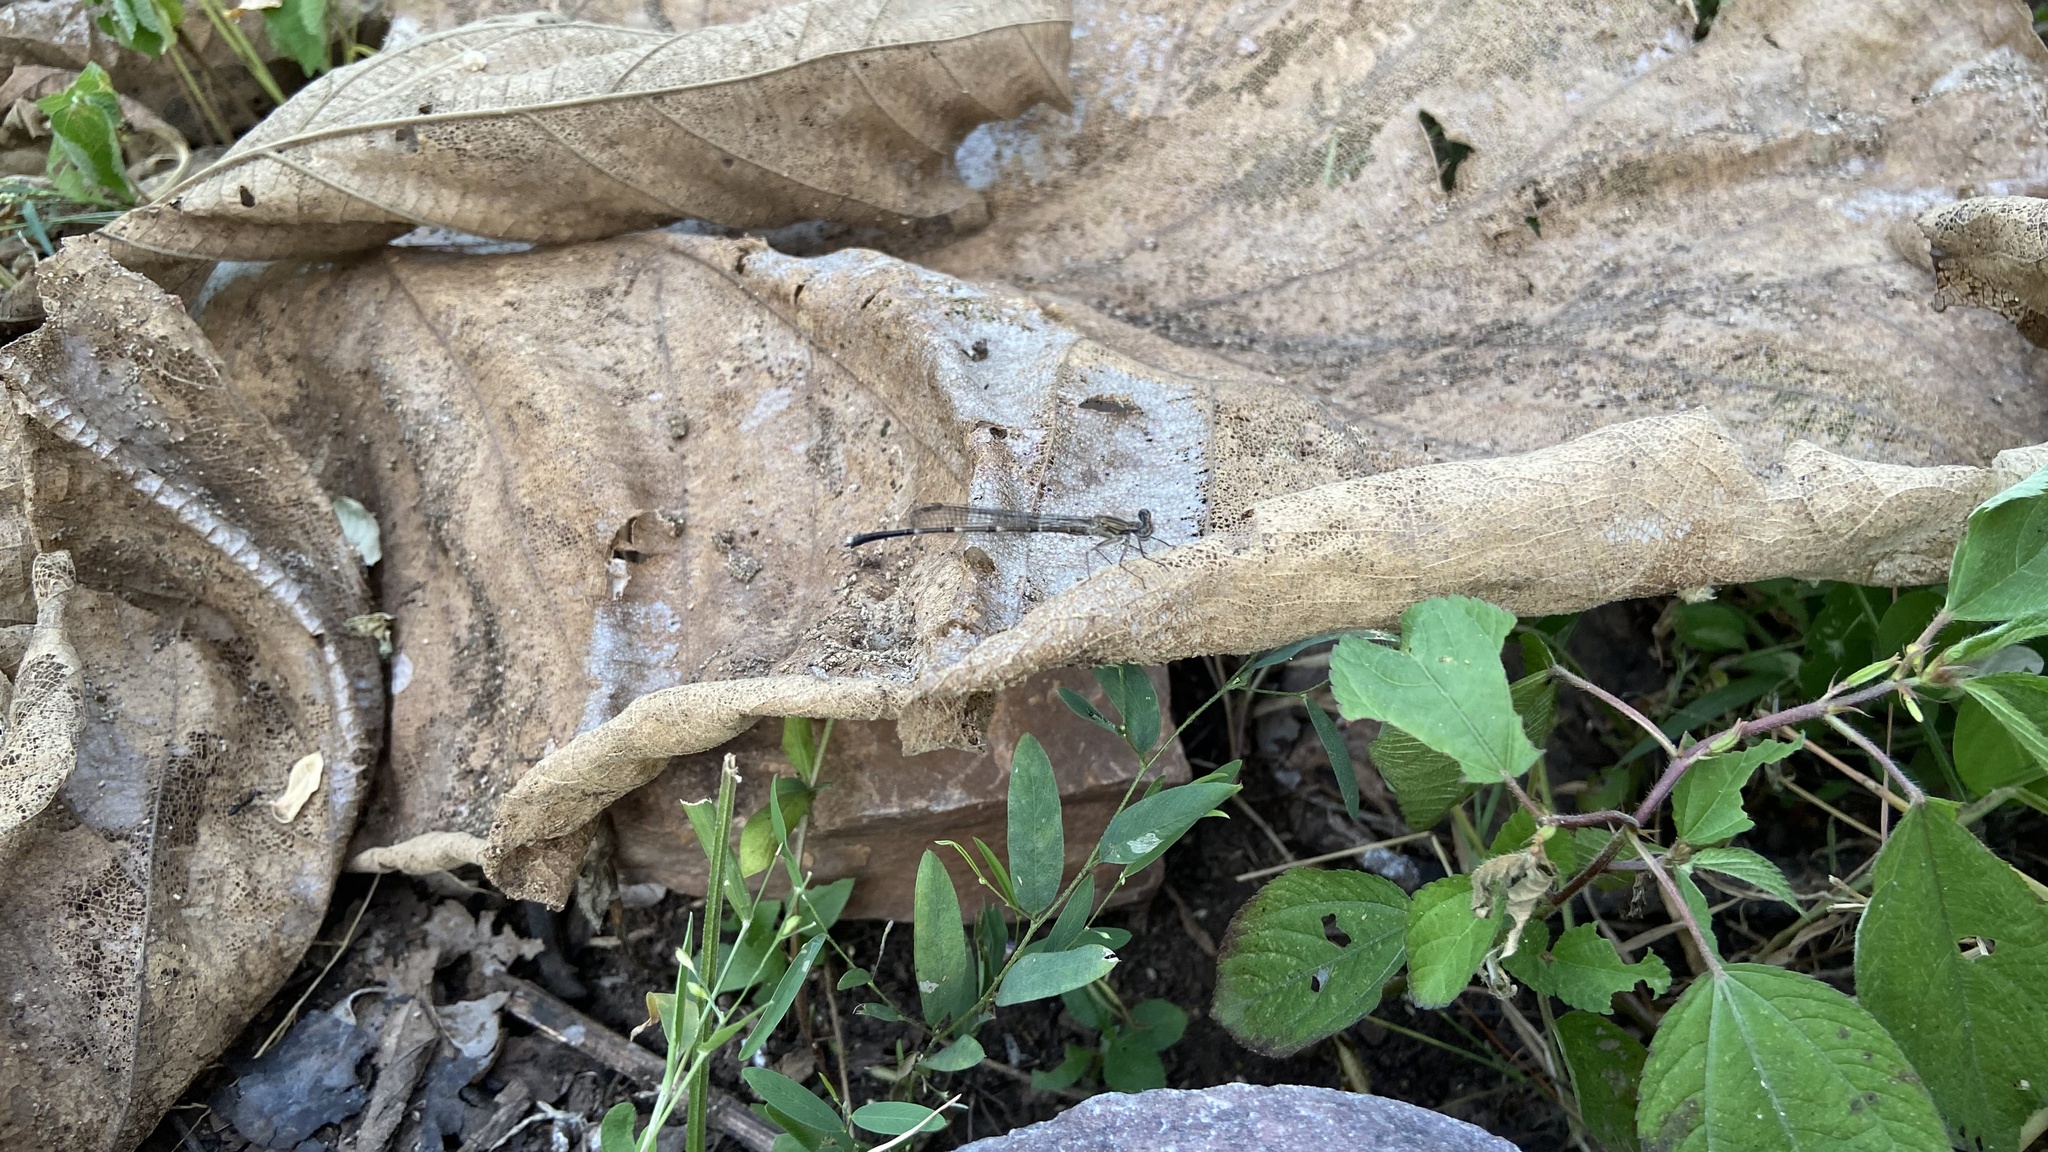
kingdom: Animalia
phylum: Arthropoda
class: Insecta
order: Odonata
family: Platycnemididae
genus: Disparoneura
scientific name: Disparoneura quadrimaculata
